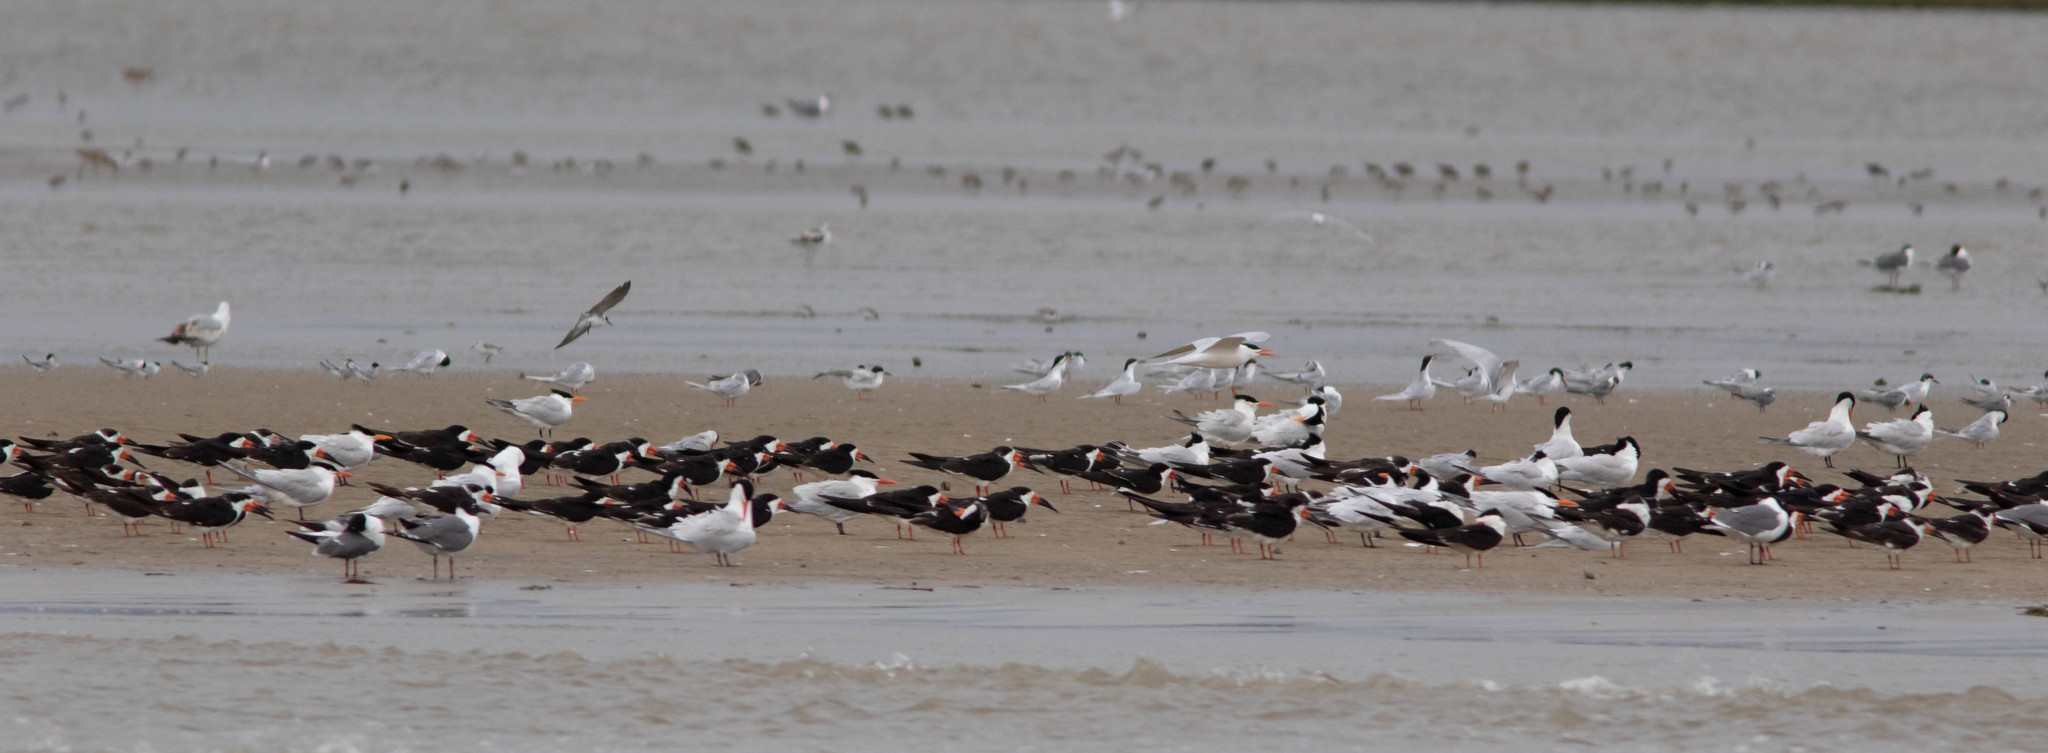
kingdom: Animalia
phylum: Chordata
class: Aves
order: Charadriiformes
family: Laridae
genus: Rynchops
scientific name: Rynchops niger
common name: Black skimmer
